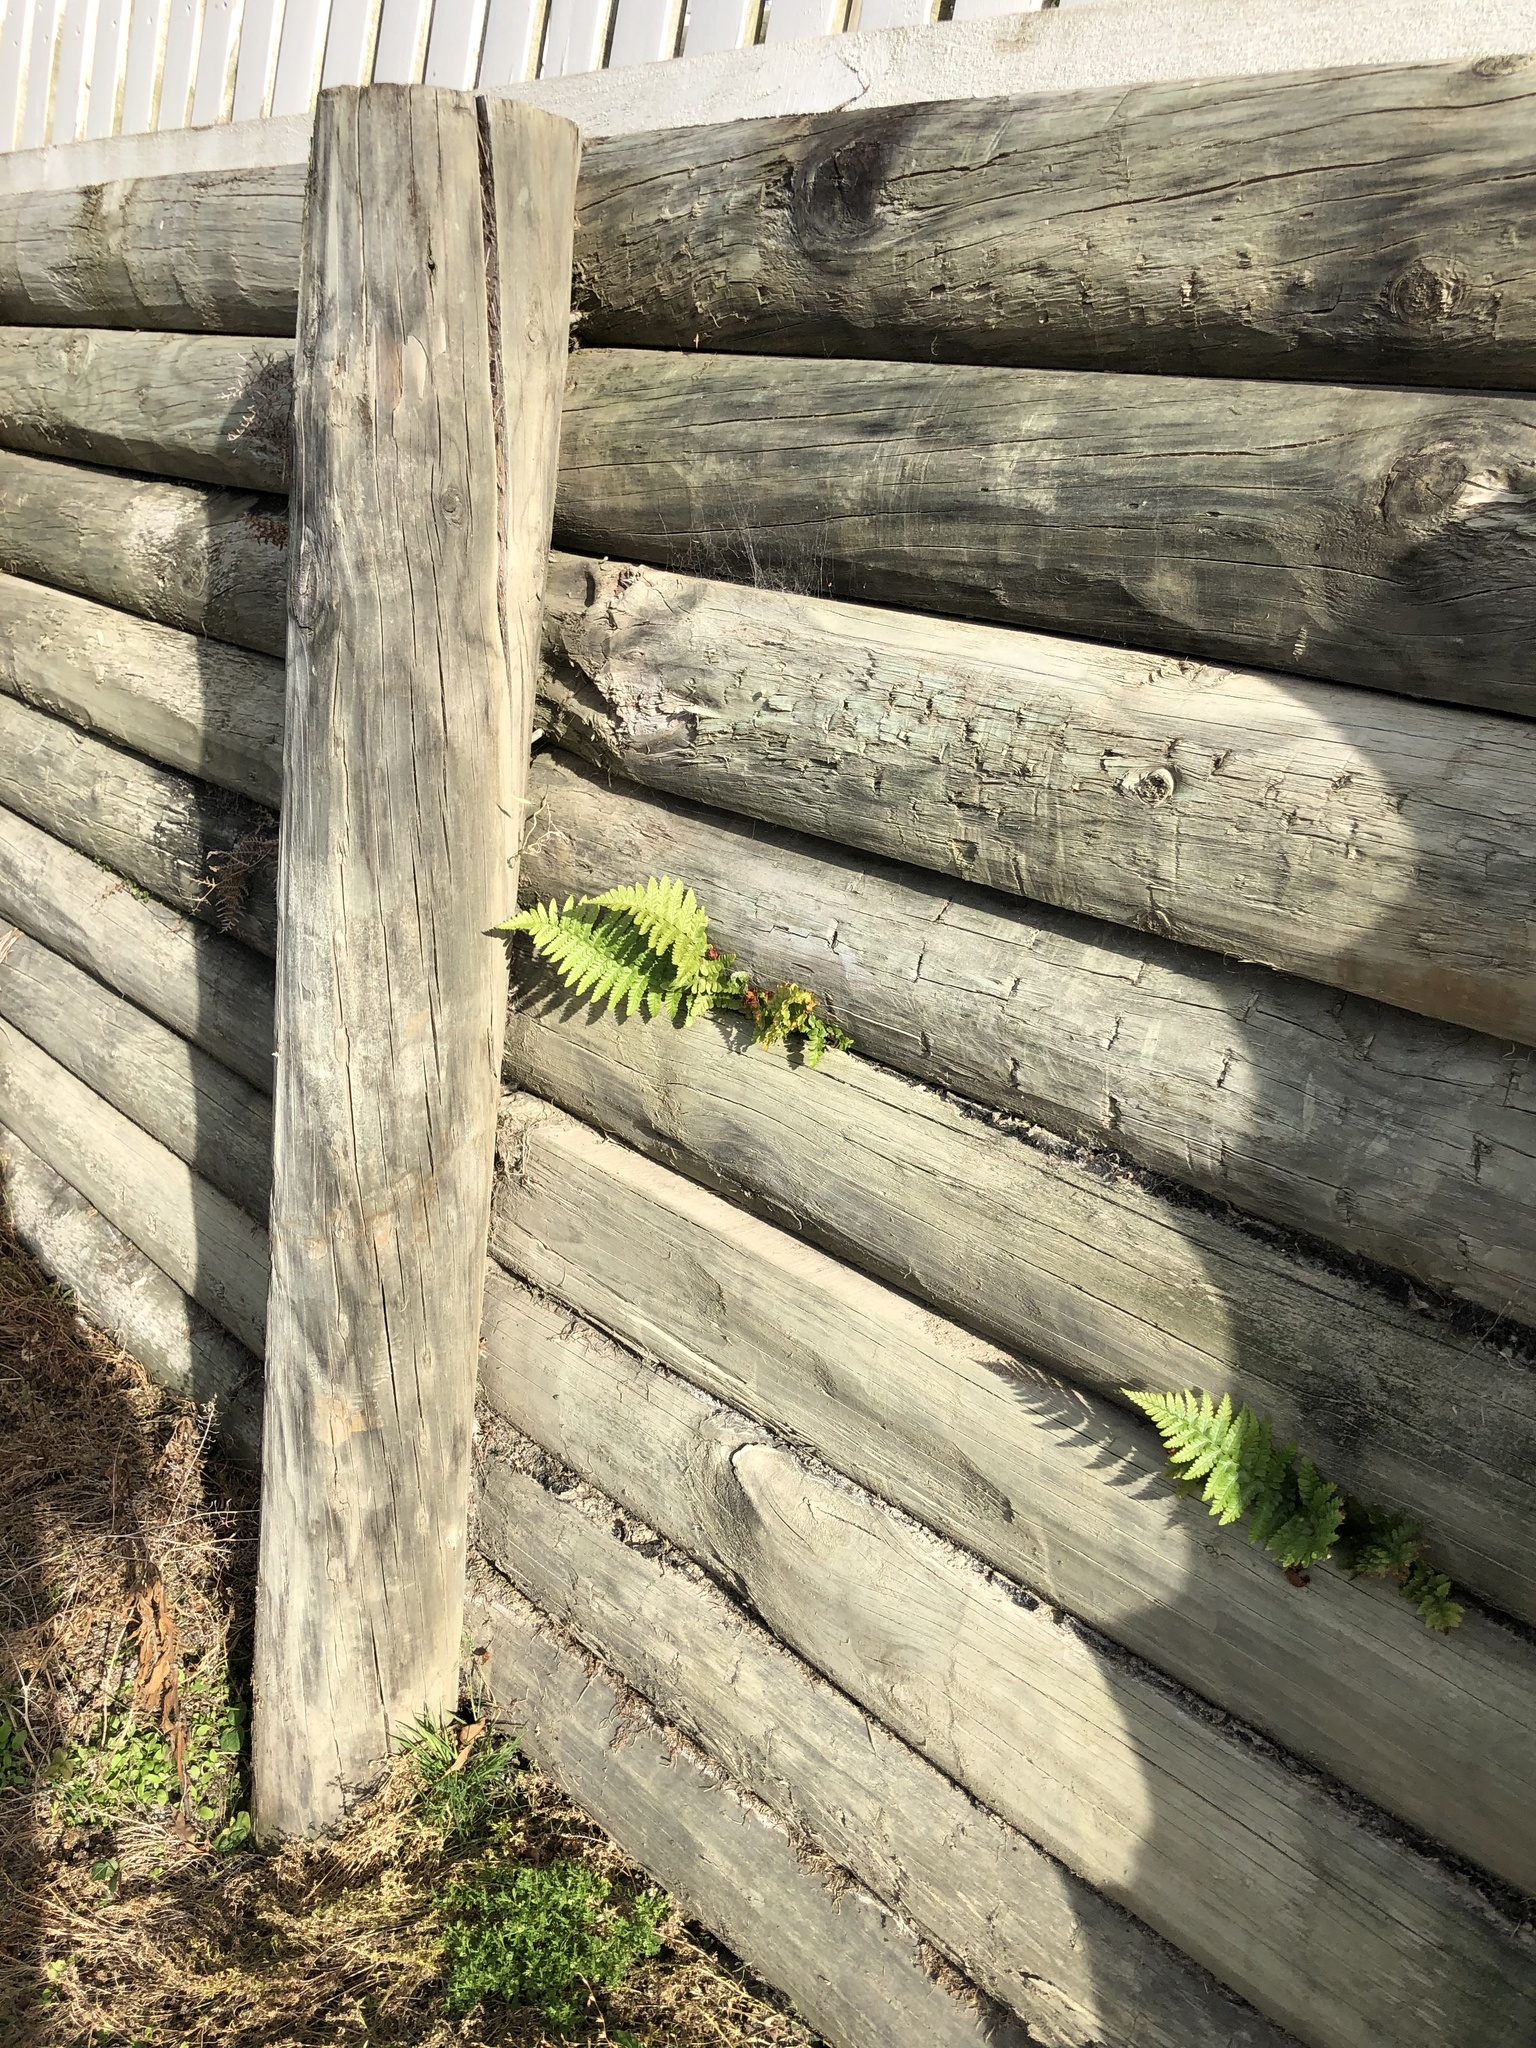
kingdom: Plantae
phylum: Tracheophyta
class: Polypodiopsida
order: Polypodiales
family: Dryopteridaceae
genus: Dryopteris
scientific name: Dryopteris filix-mas
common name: Male fern
